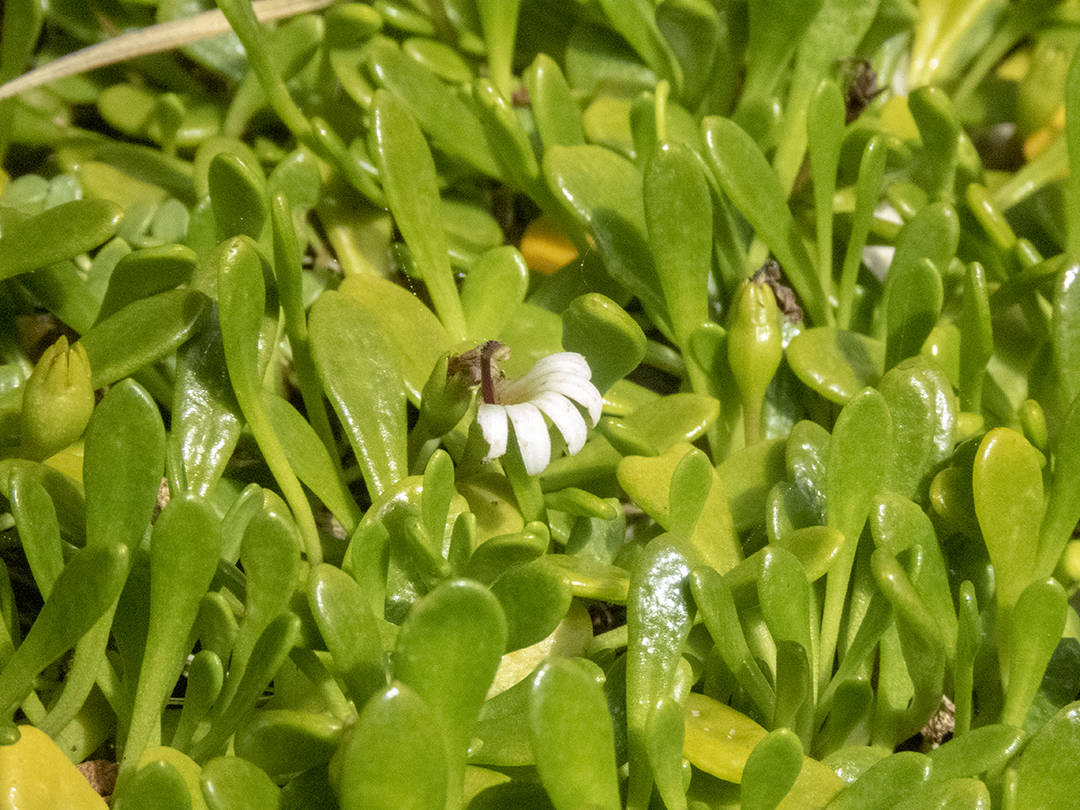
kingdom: Plantae
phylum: Tracheophyta
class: Magnoliopsida
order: Asterales
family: Goodeniaceae
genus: Goodenia
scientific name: Goodenia radicans
